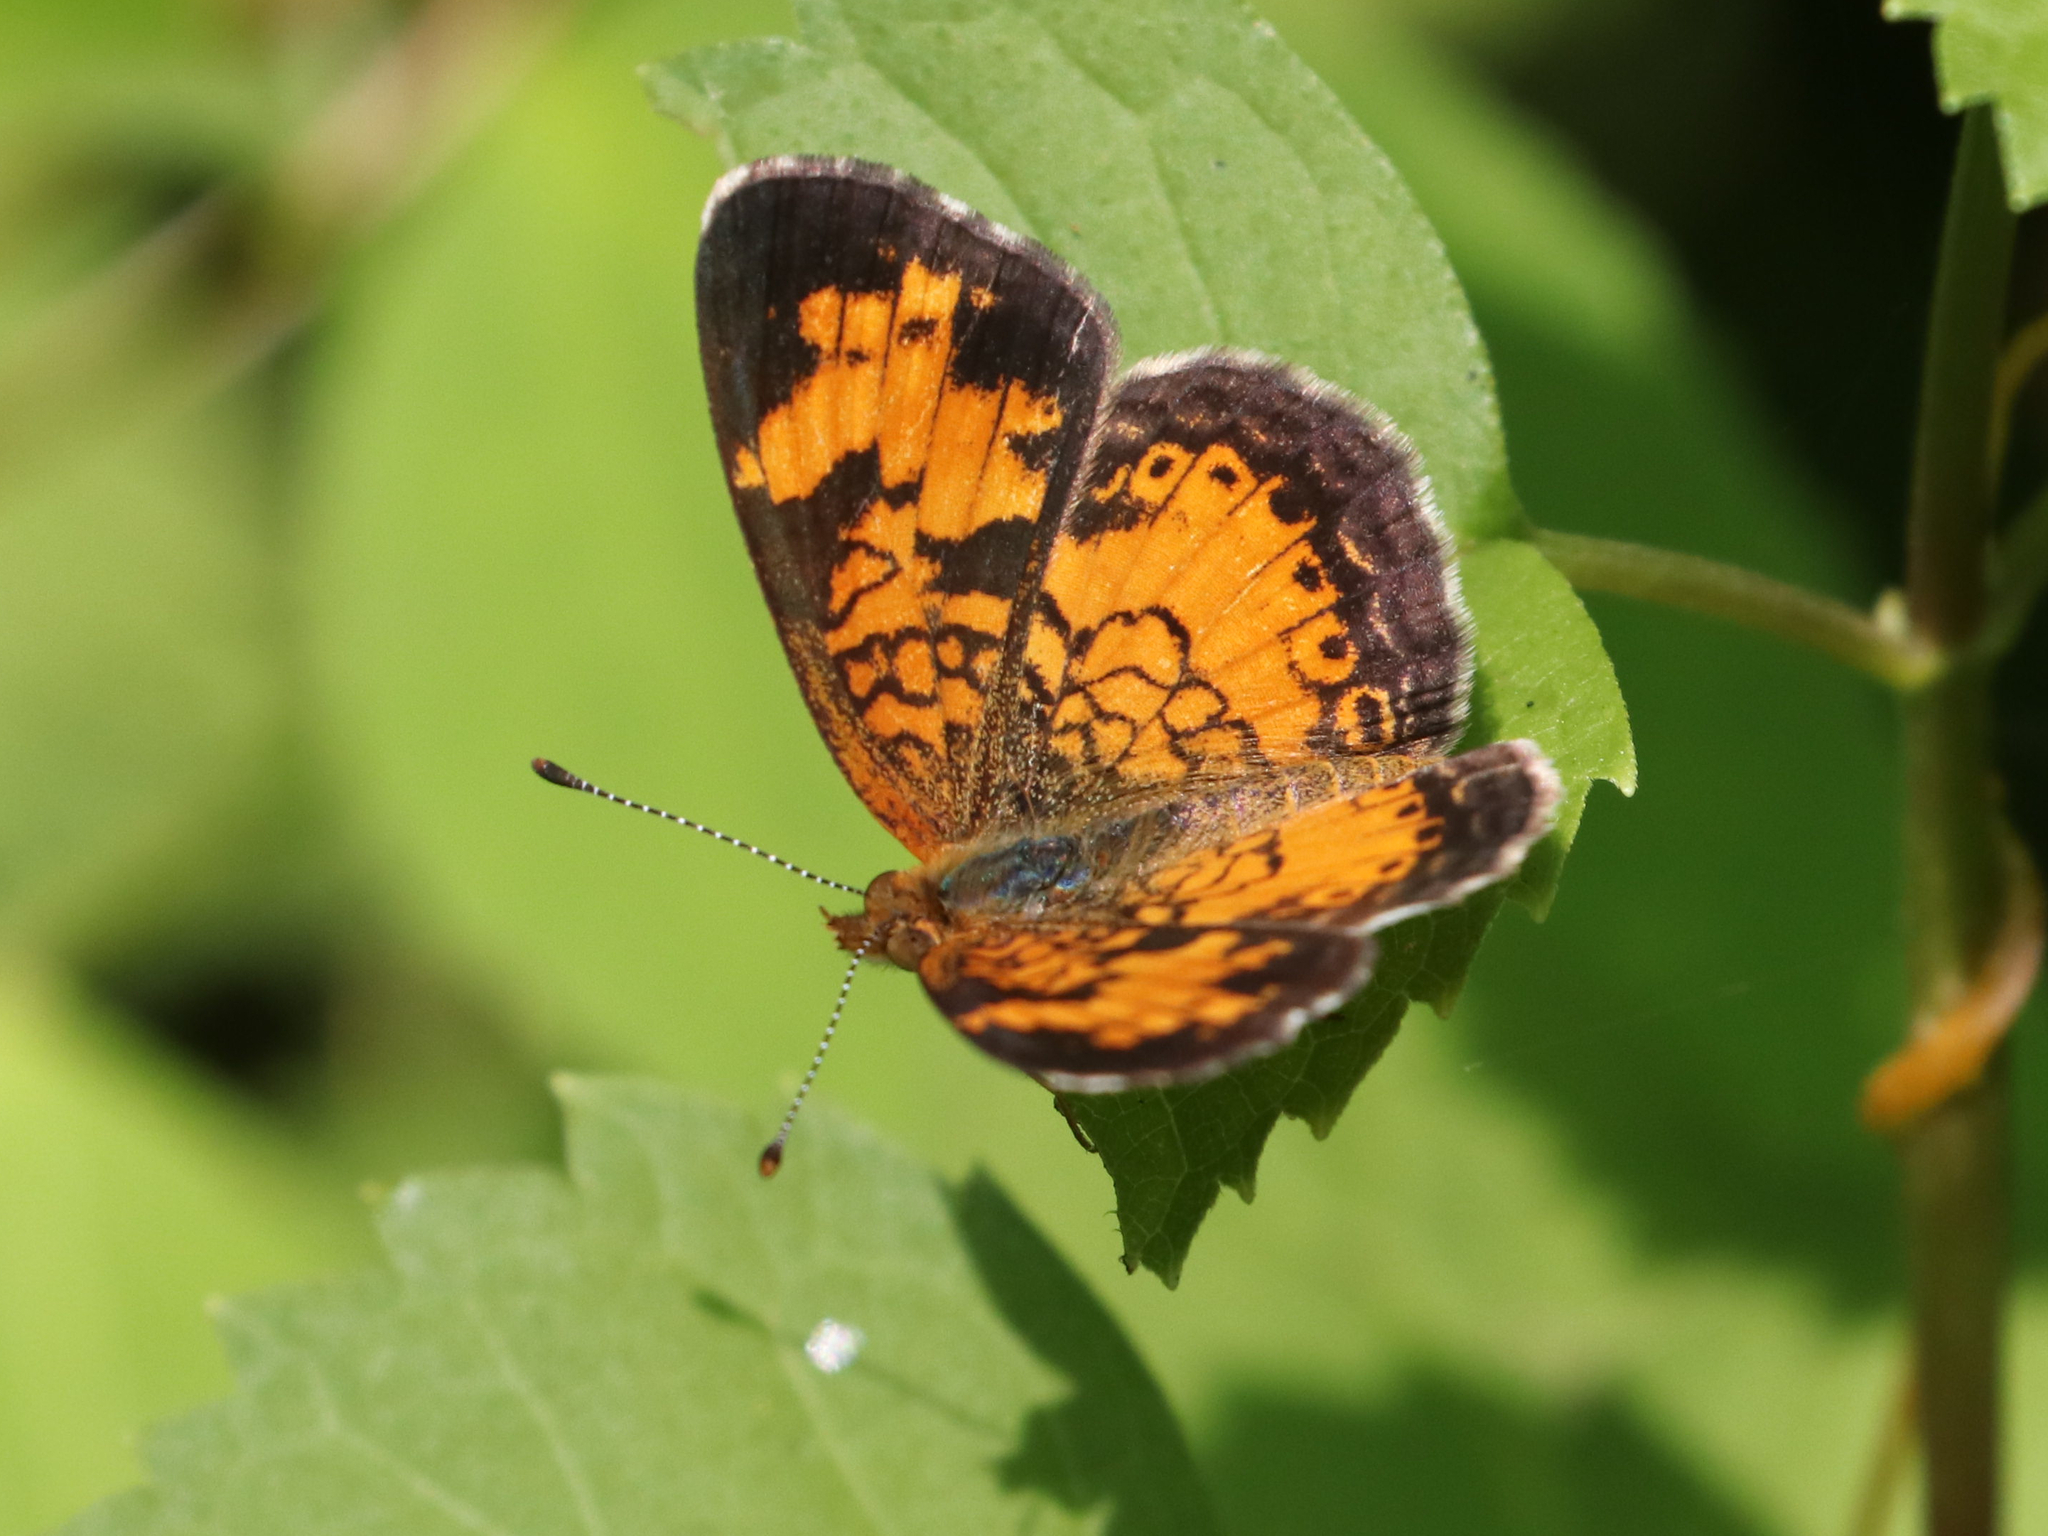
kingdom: Animalia
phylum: Arthropoda
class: Insecta
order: Lepidoptera
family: Nymphalidae
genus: Phyciodes
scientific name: Phyciodes tharos
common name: Pearl crescent
